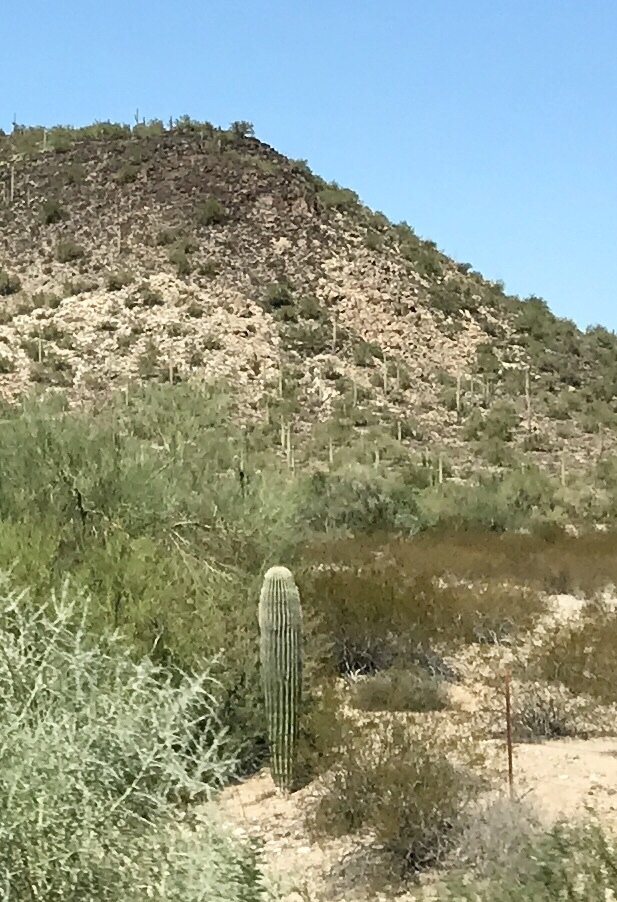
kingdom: Plantae
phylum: Tracheophyta
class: Magnoliopsida
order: Caryophyllales
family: Cactaceae
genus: Carnegiea
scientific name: Carnegiea gigantea
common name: Saguaro
